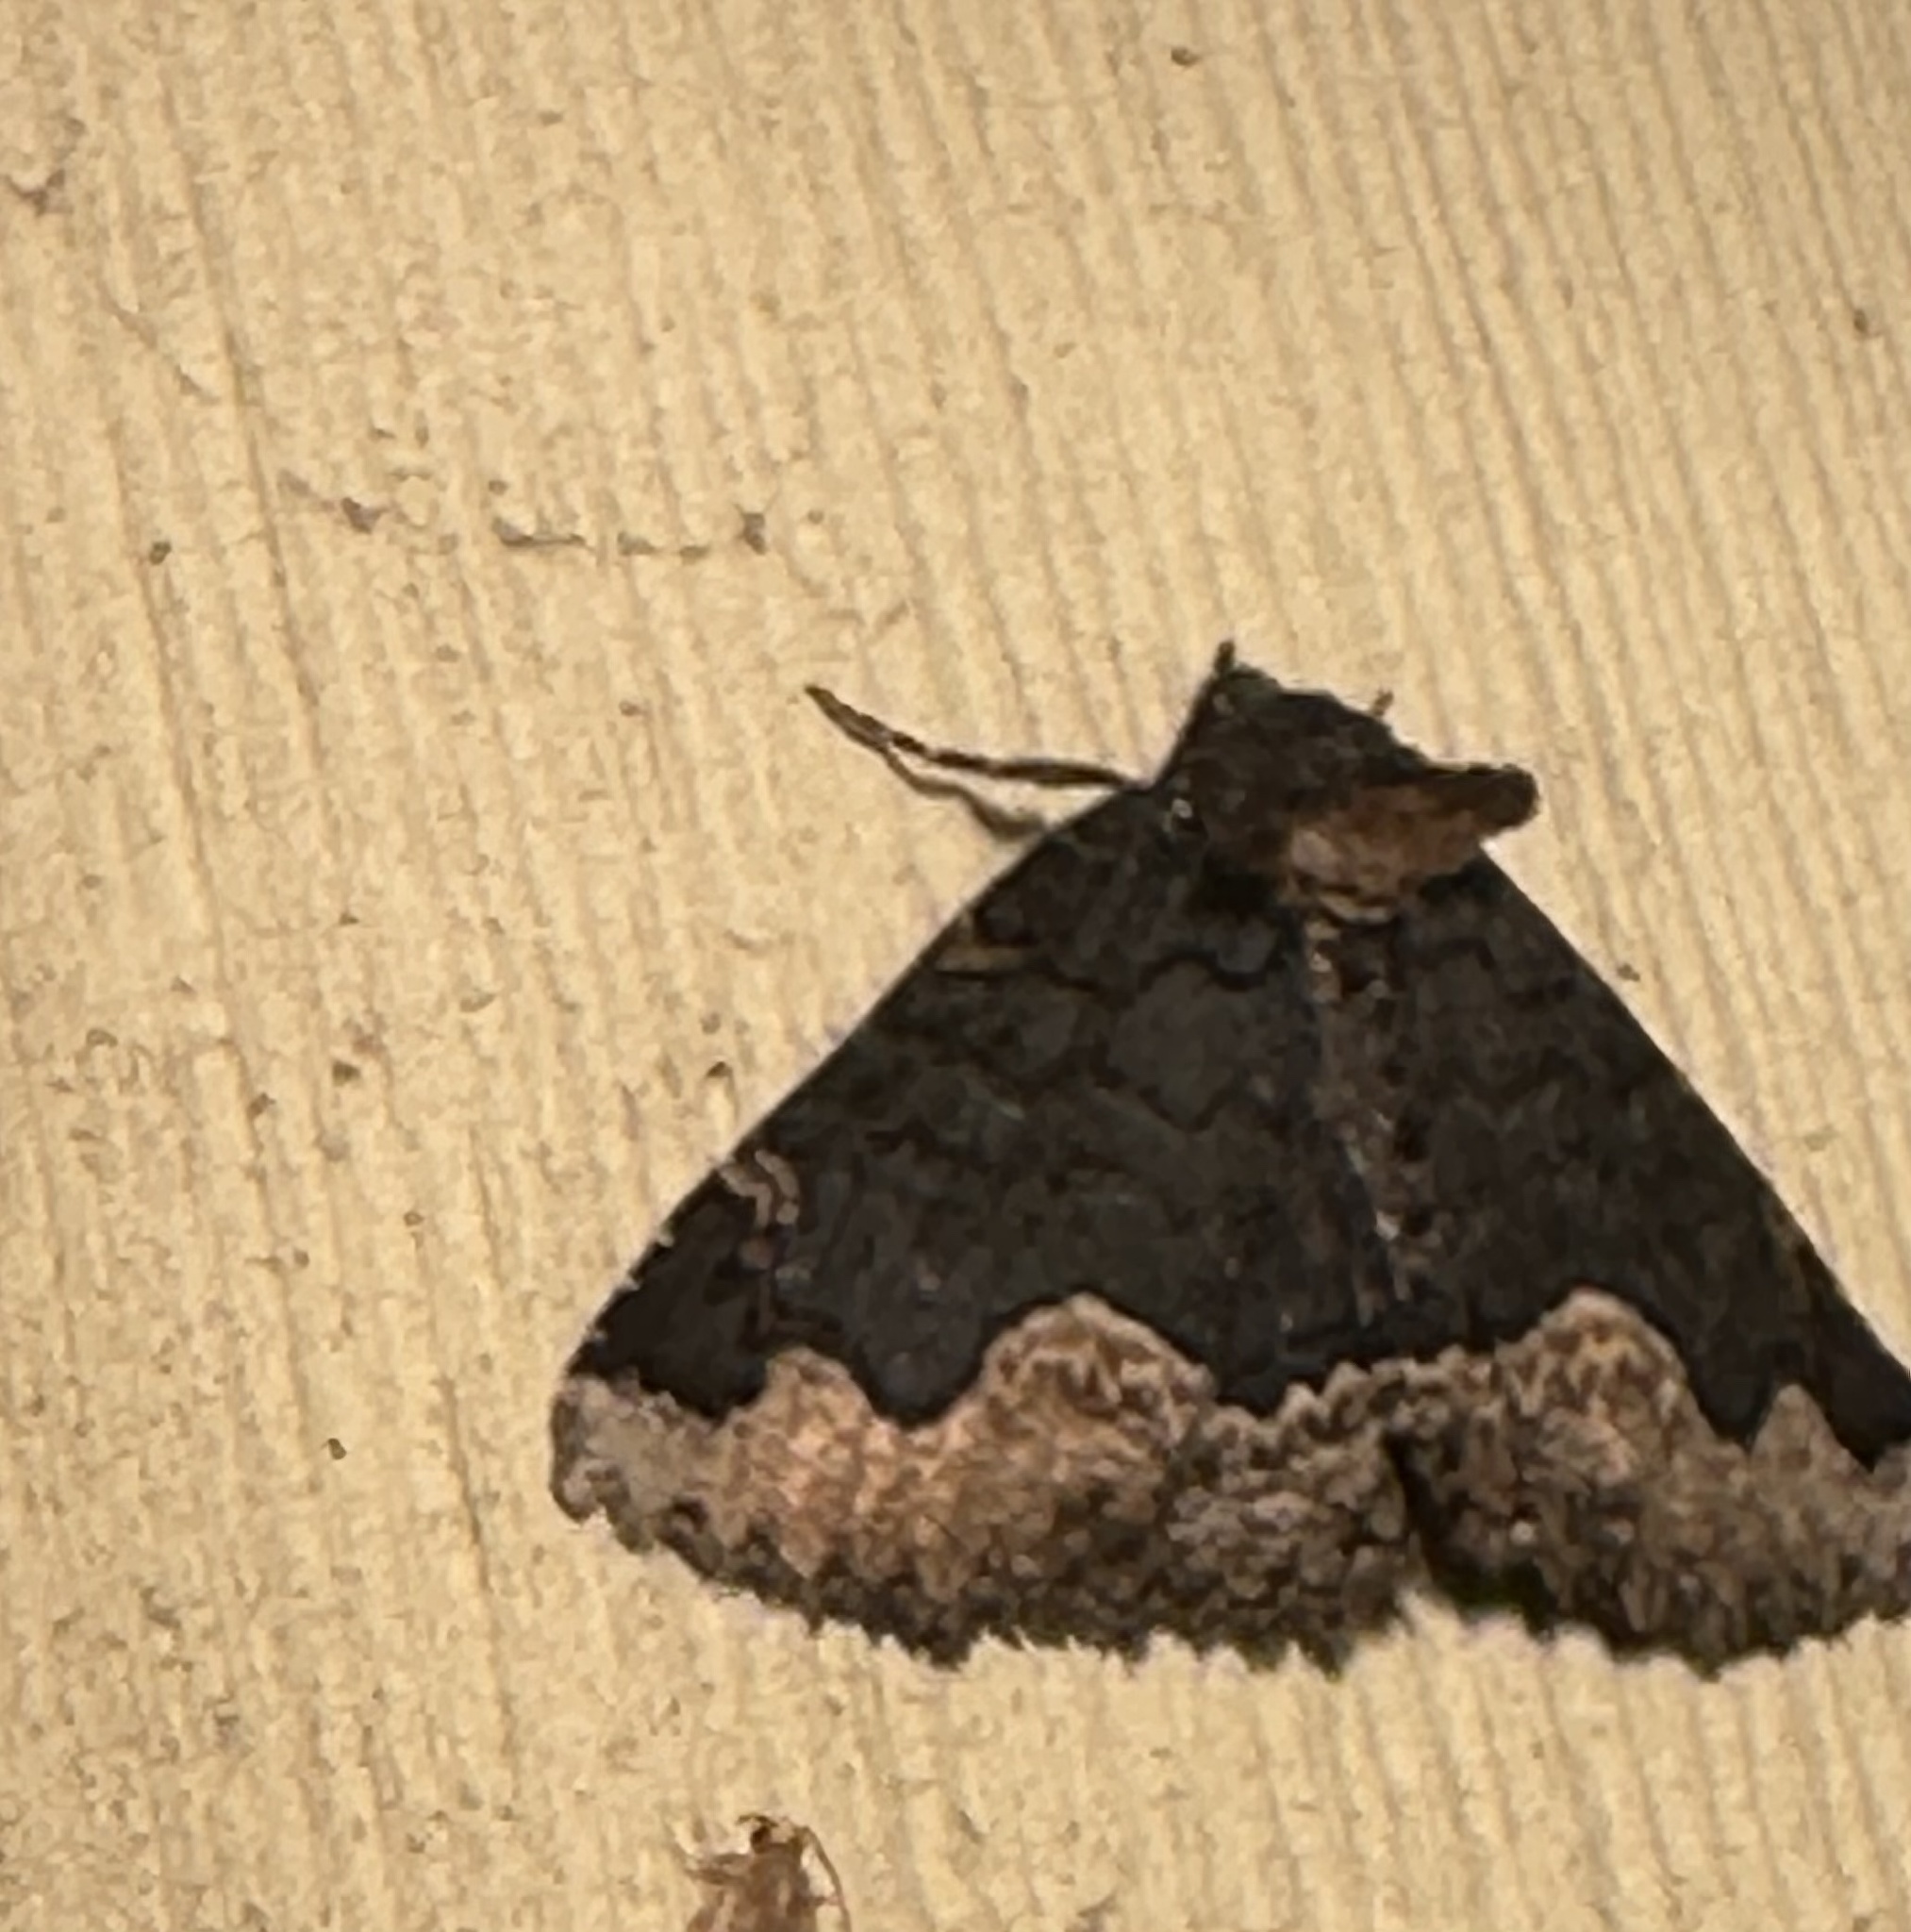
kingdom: Animalia
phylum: Arthropoda
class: Insecta
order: Lepidoptera
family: Erebidae
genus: Zale
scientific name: Zale horrida
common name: Horrid zale moth
